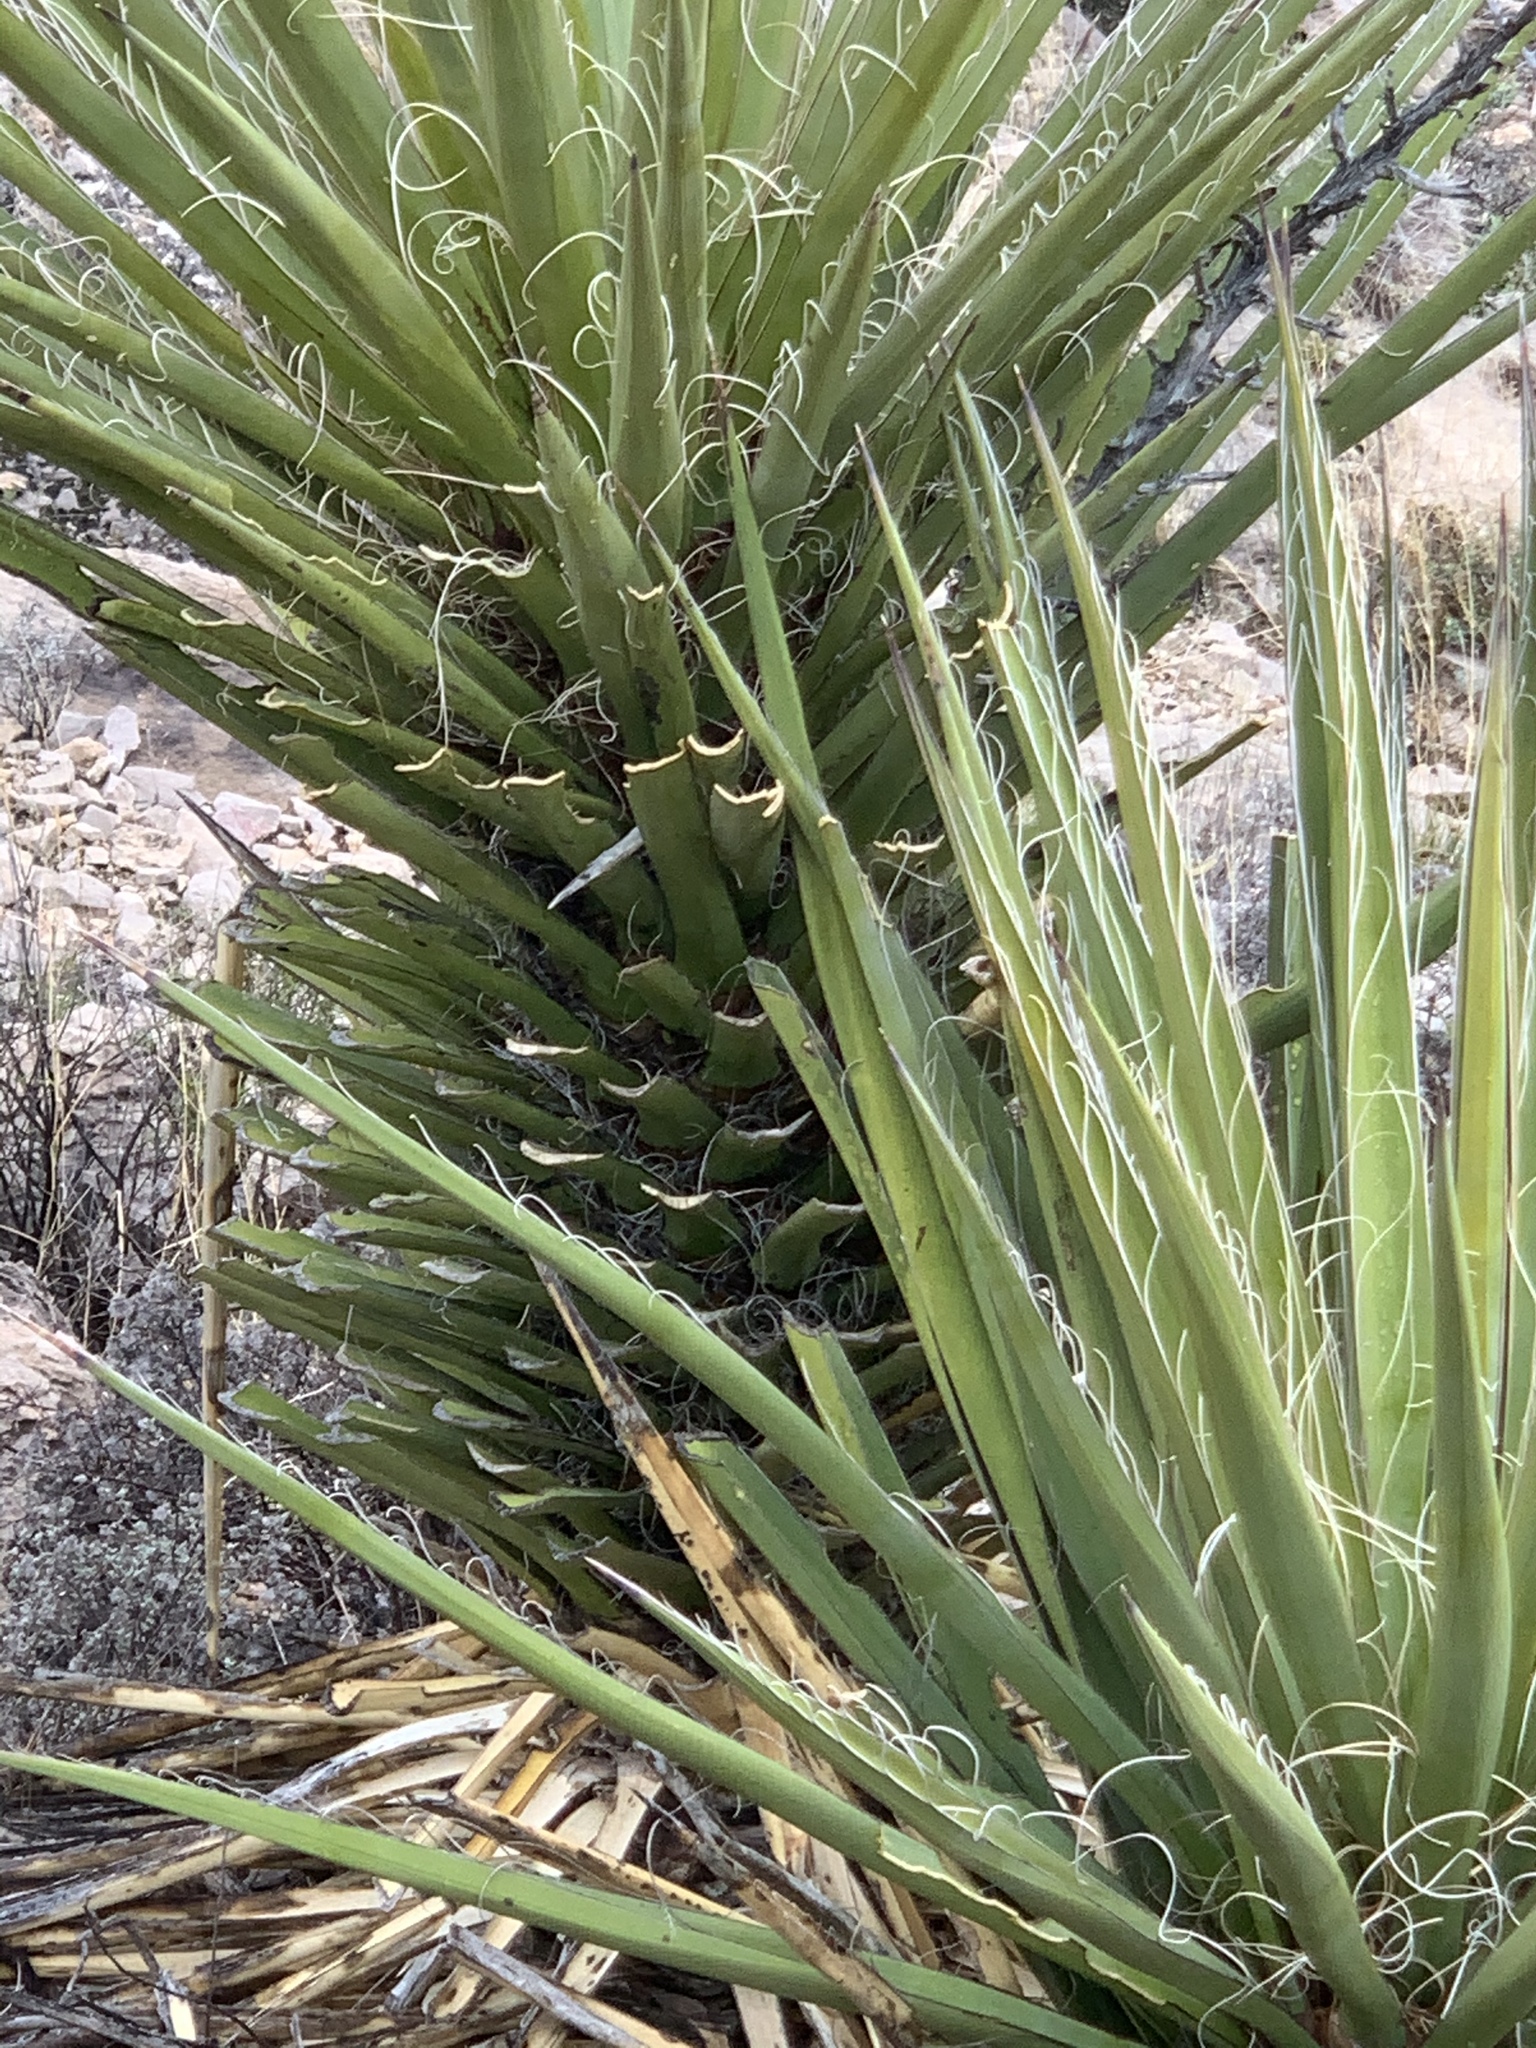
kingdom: Plantae
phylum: Tracheophyta
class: Liliopsida
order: Asparagales
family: Asparagaceae
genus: Yucca
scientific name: Yucca treculiana
